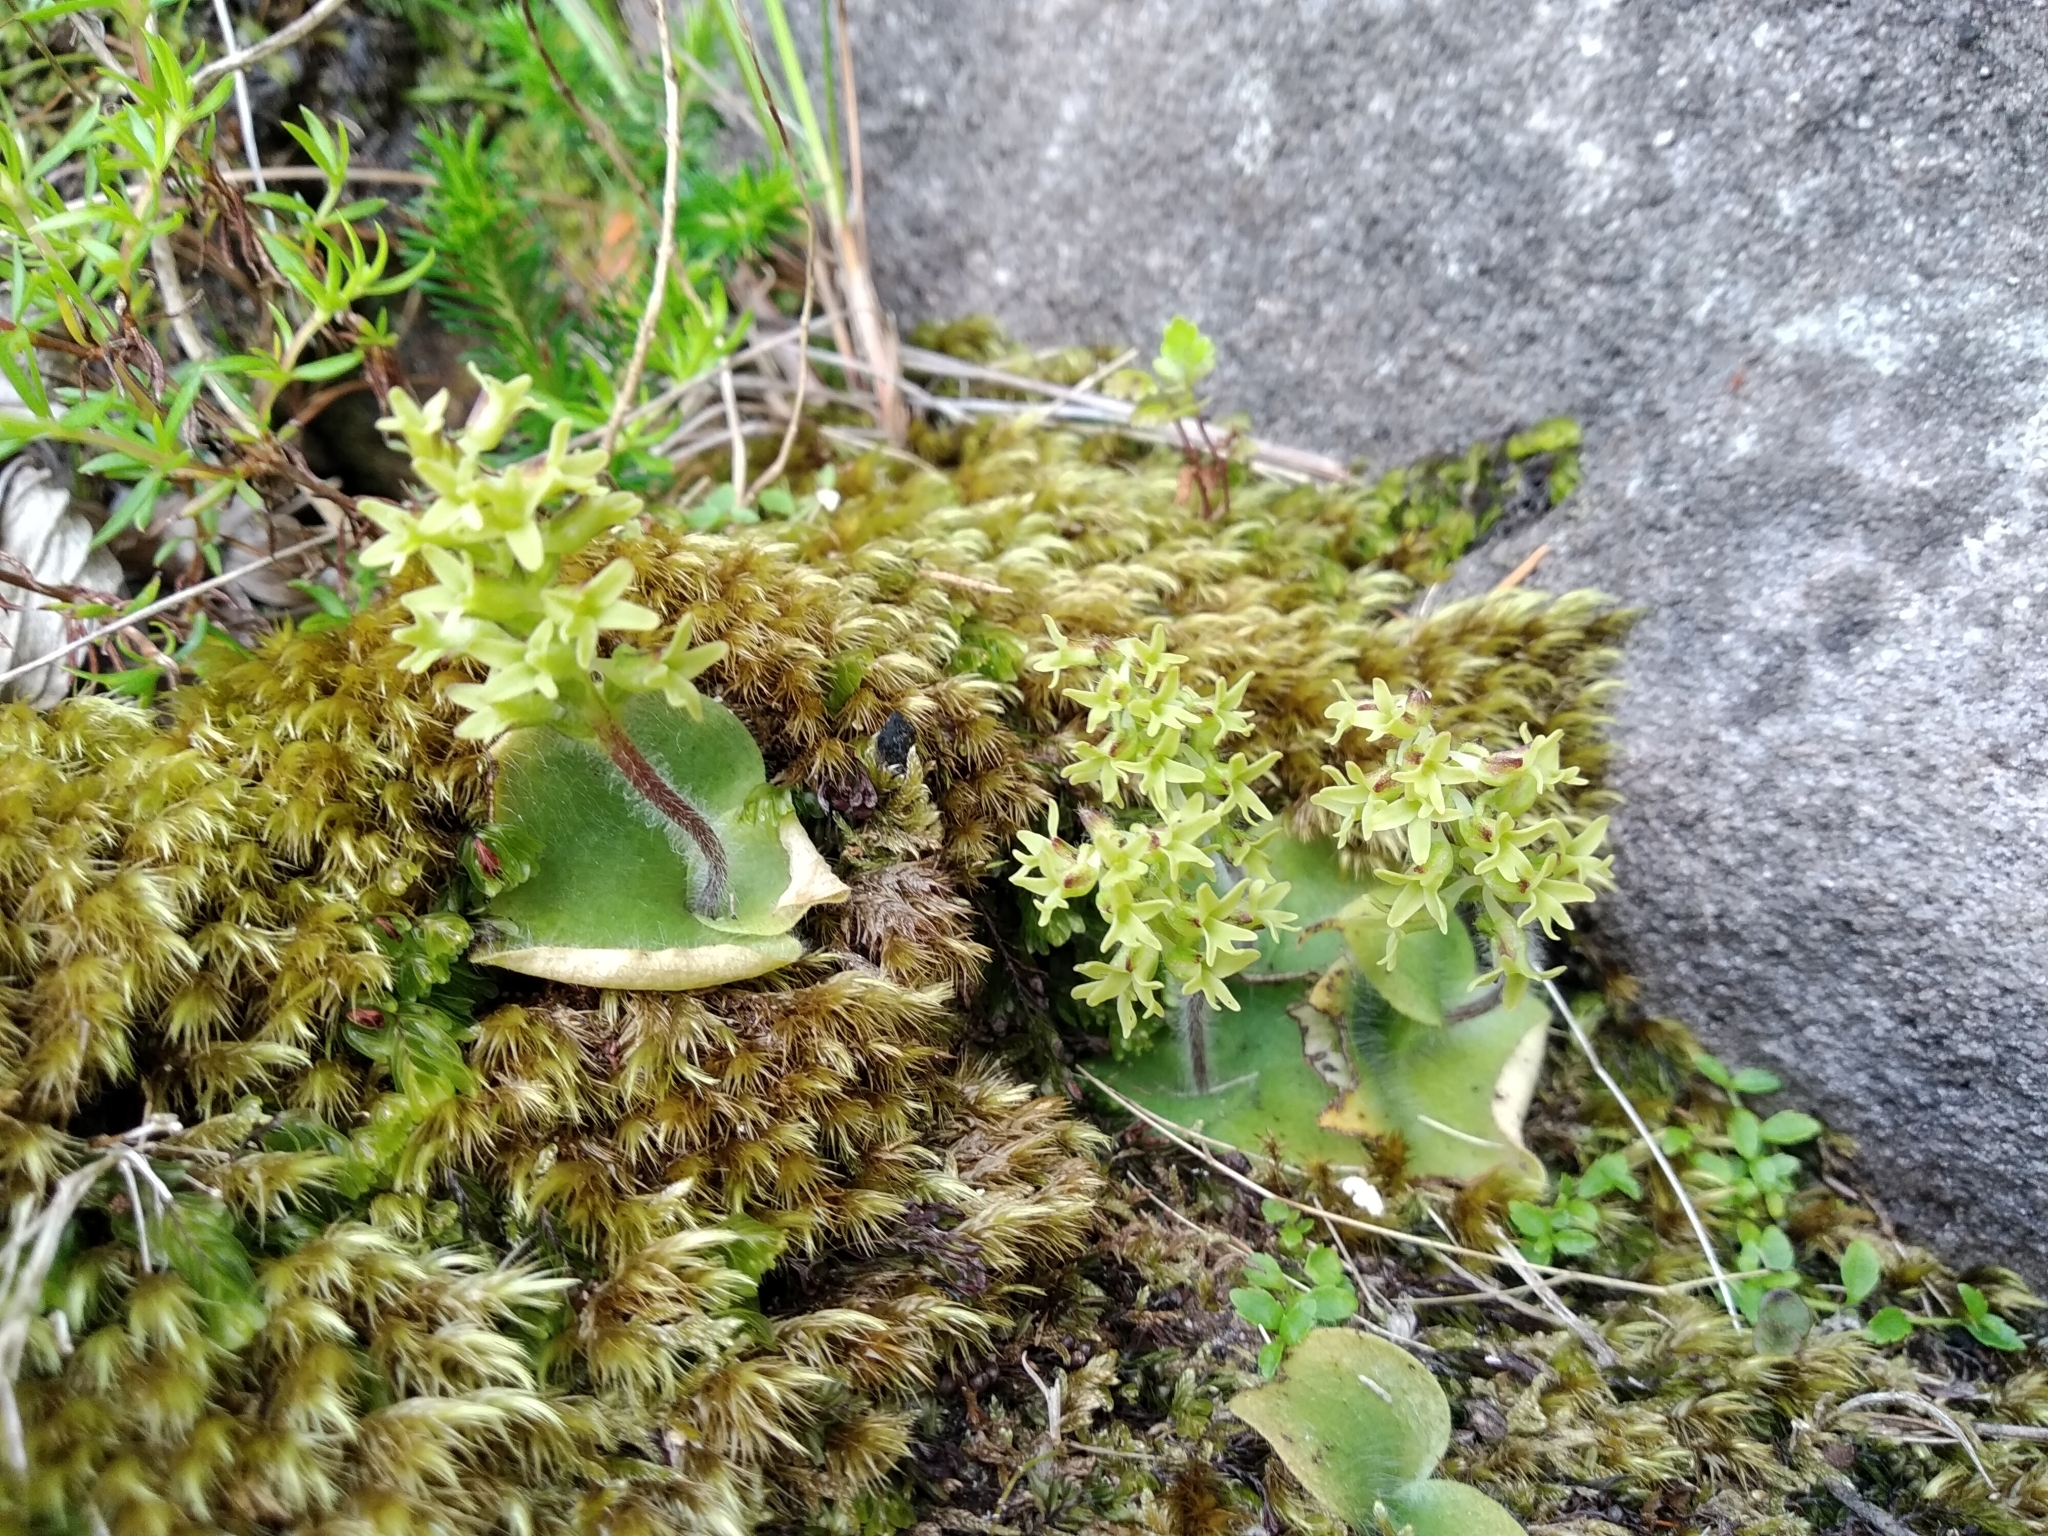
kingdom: Plantae
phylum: Tracheophyta
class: Liliopsida
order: Asparagales
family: Orchidaceae
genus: Holothrix
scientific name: Holothrix condensata
